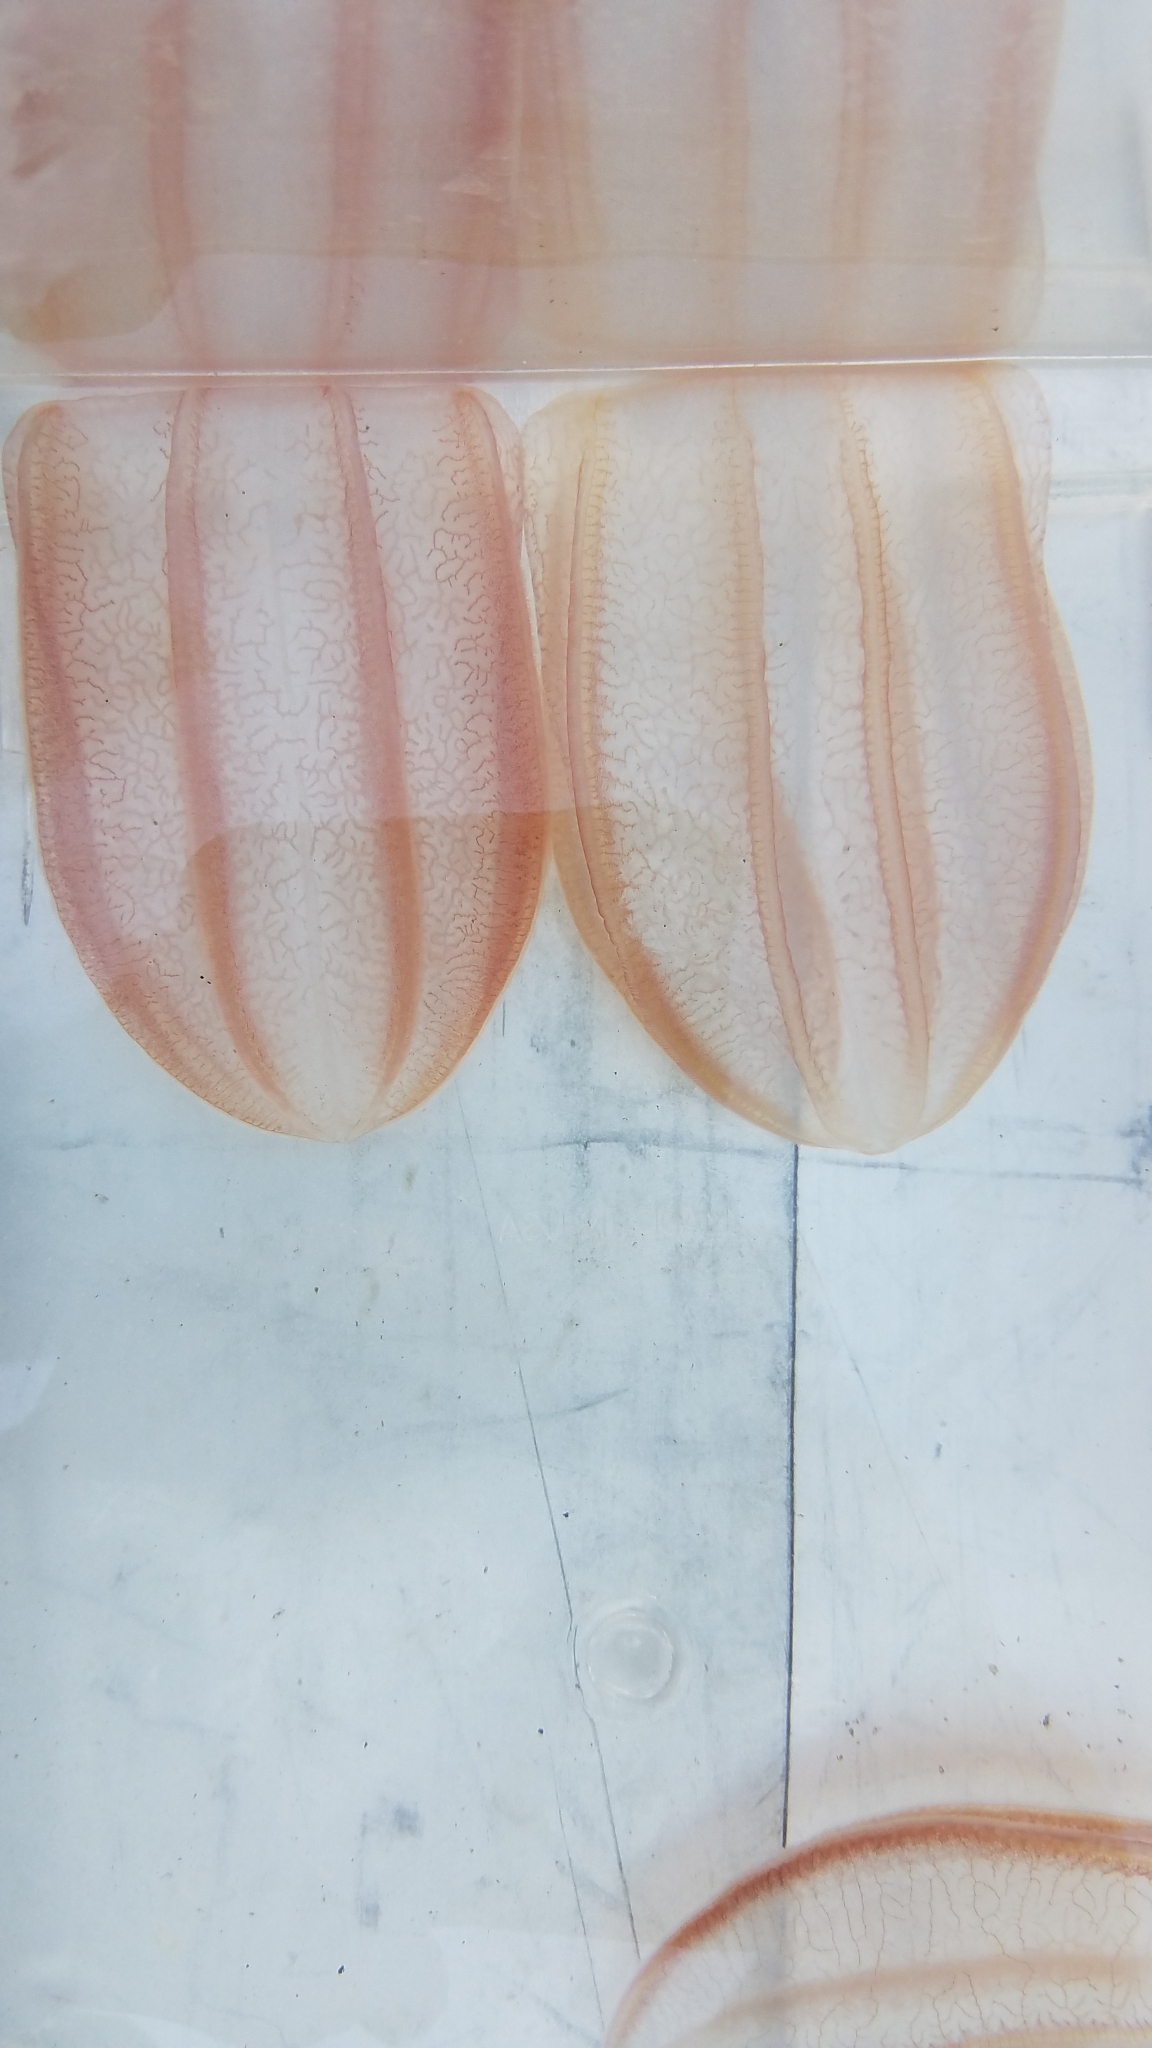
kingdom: Animalia
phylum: Ctenophora
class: Nuda
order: Beroida
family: Beroidae
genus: Beroe
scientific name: Beroe ovata
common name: Flattened helmet comb jelly
